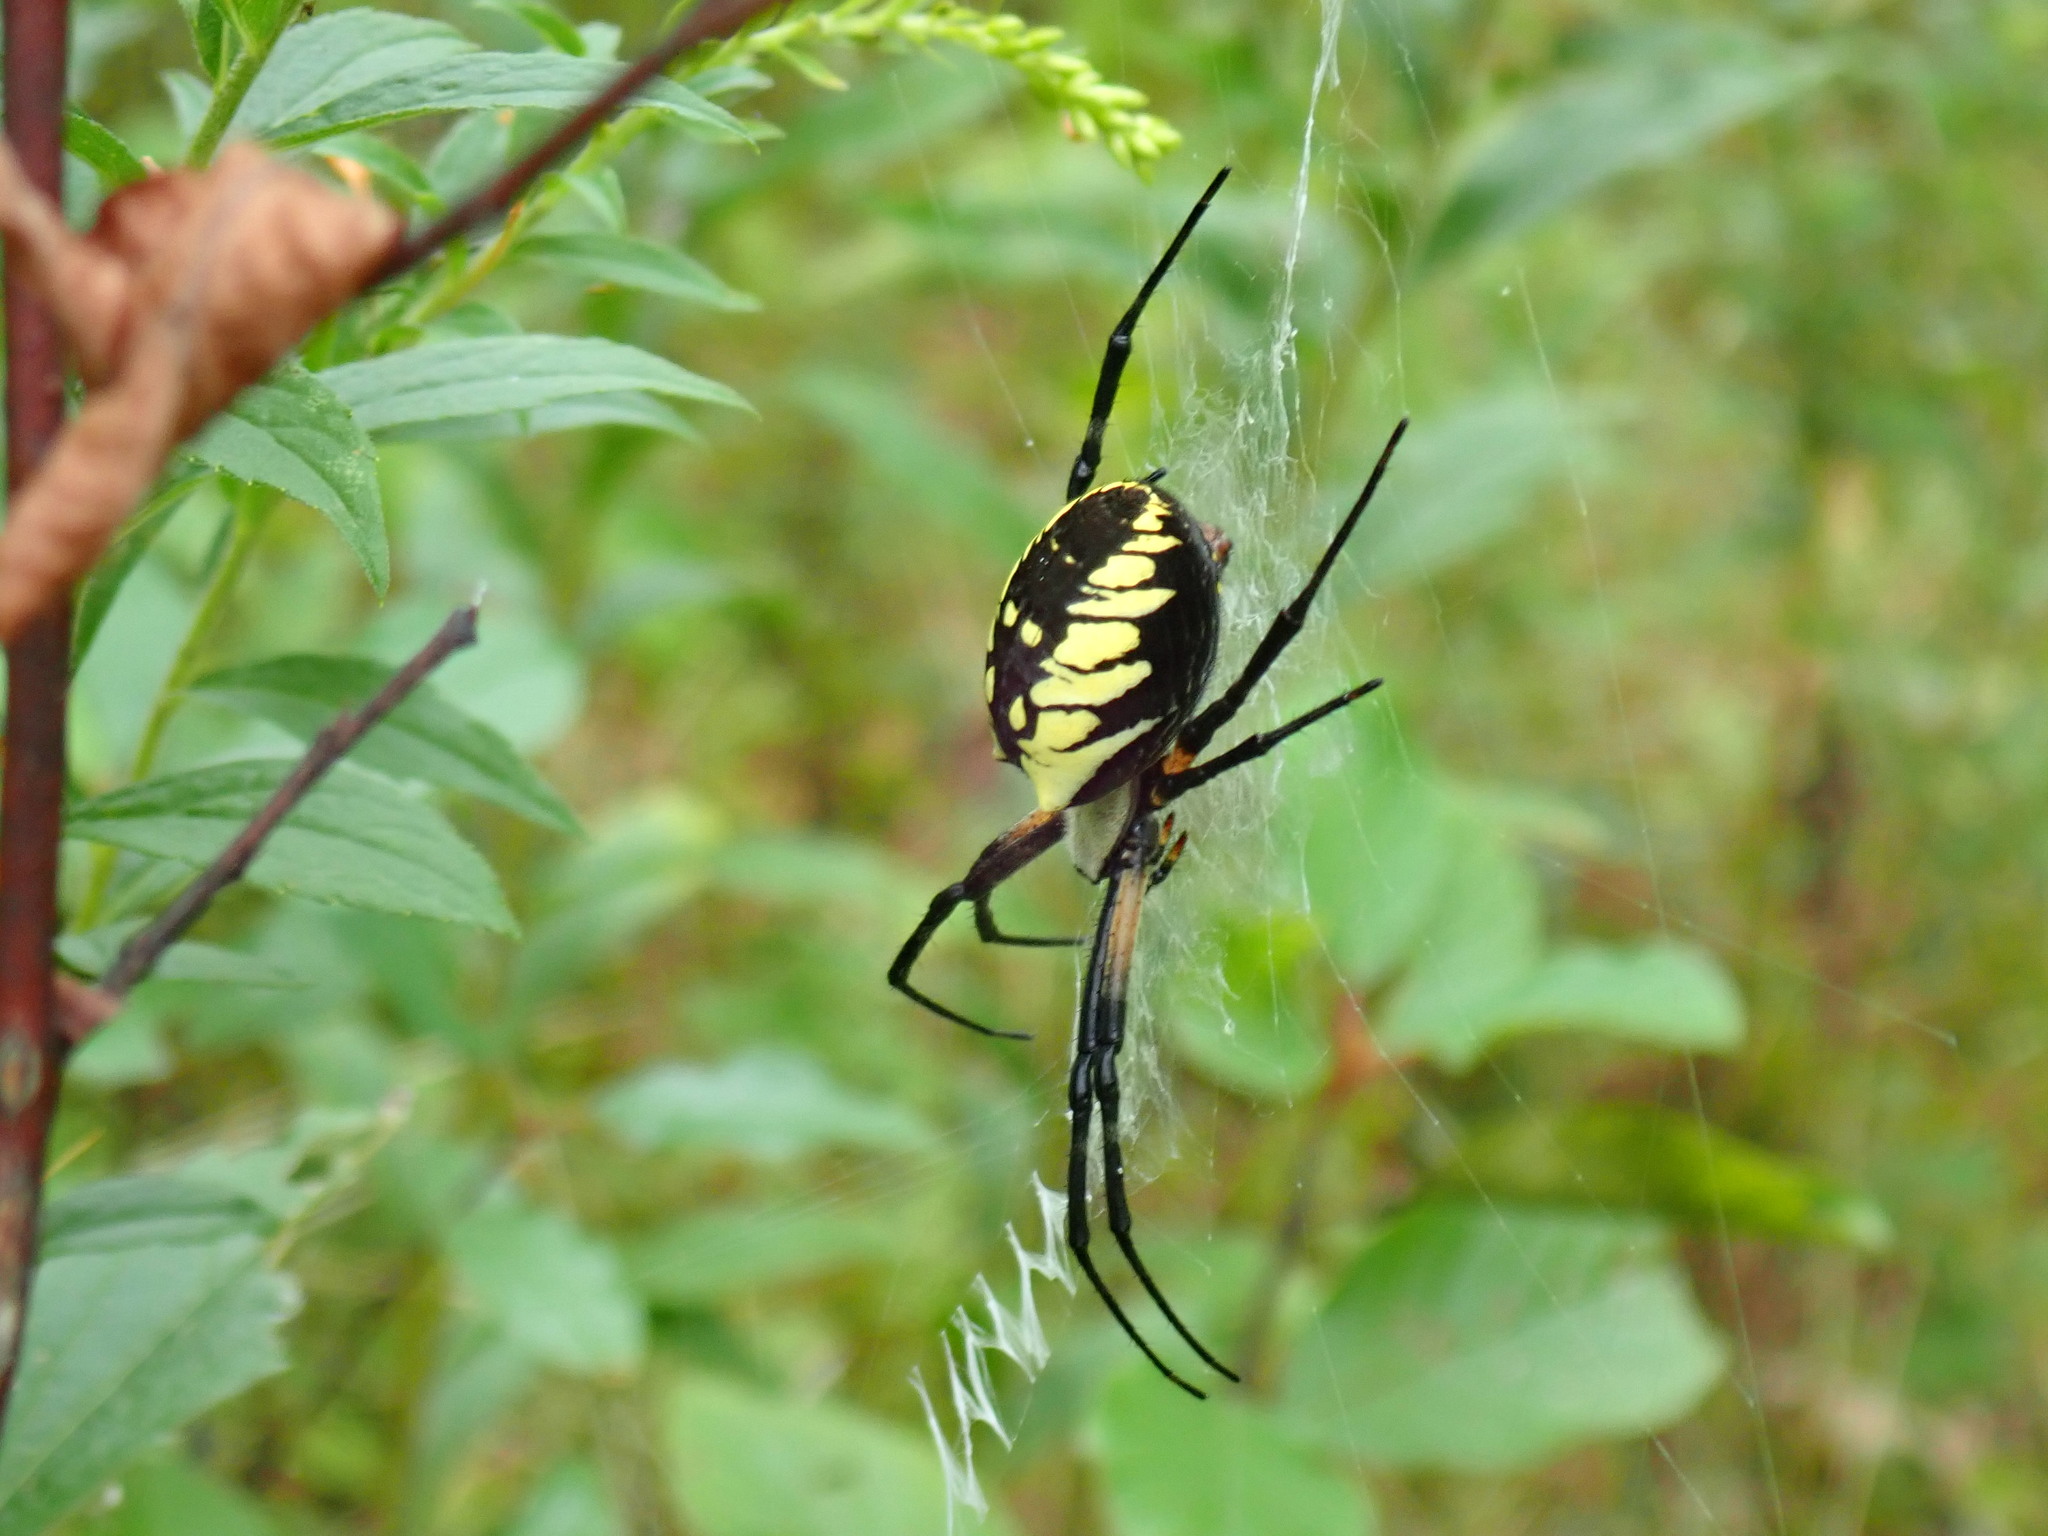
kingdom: Animalia
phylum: Arthropoda
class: Arachnida
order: Araneae
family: Araneidae
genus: Argiope
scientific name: Argiope aurantia
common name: Orb weavers
